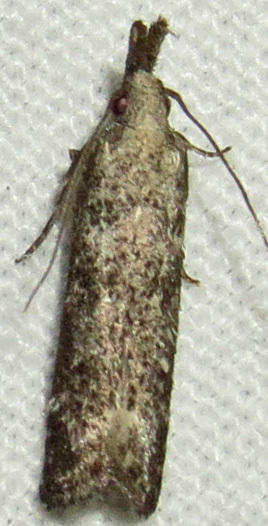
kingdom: Animalia
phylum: Arthropoda
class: Insecta
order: Lepidoptera
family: Gelechiidae
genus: Dichomeris
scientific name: Dichomeris inversella
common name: Inverse dichomeris moth
